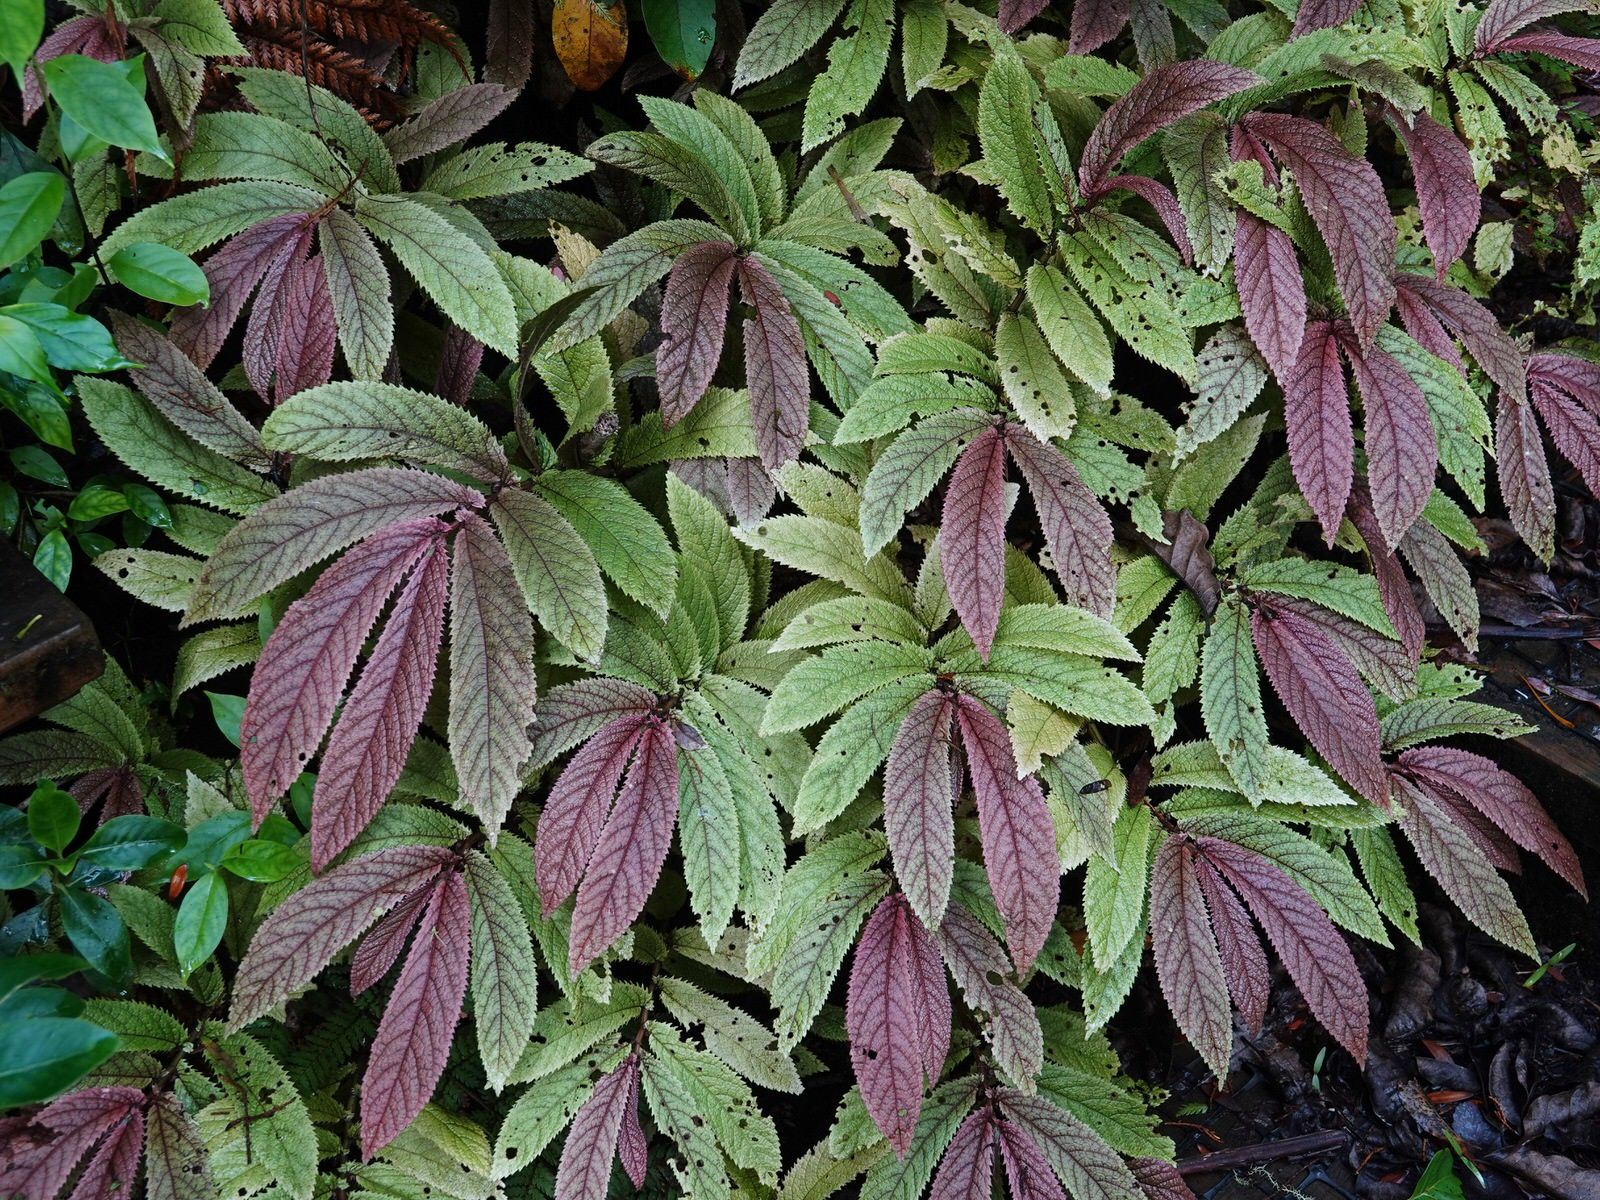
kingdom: Plantae
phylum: Tracheophyta
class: Magnoliopsida
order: Rosales
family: Urticaceae
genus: Elatostema
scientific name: Elatostema rugosum
